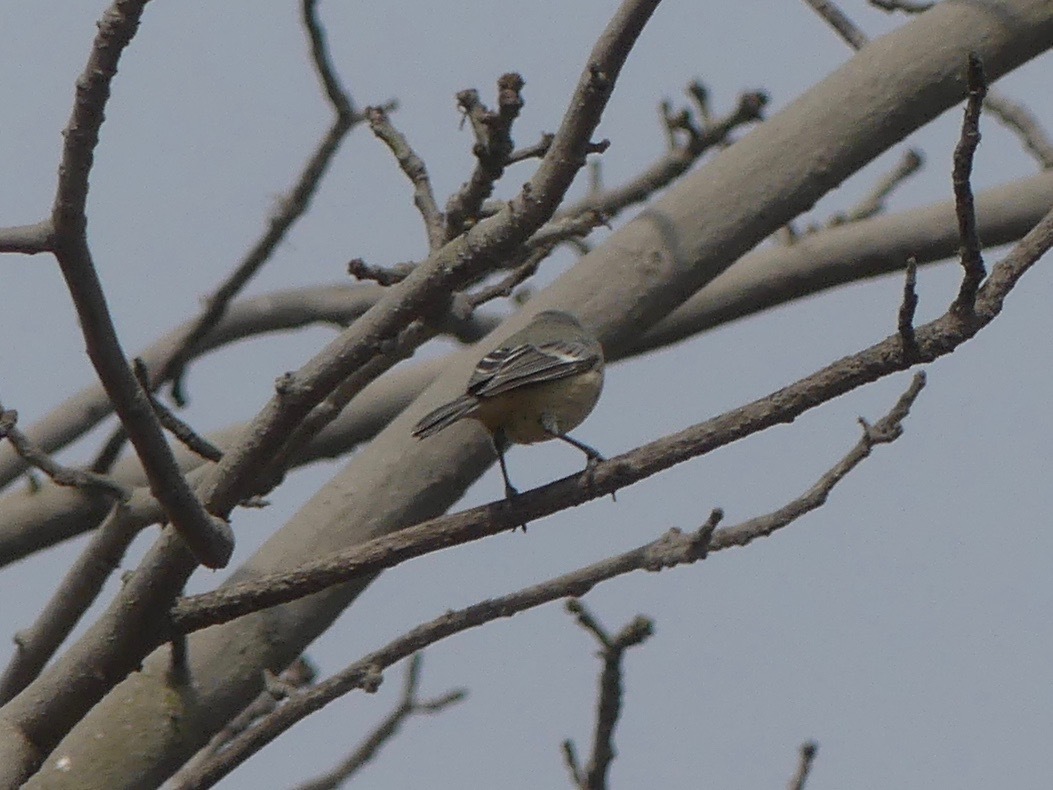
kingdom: Animalia
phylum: Chordata
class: Aves
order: Passeriformes
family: Thraupidae
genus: Conirostrum
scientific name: Conirostrum cinereum
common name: Cinereous conebill
